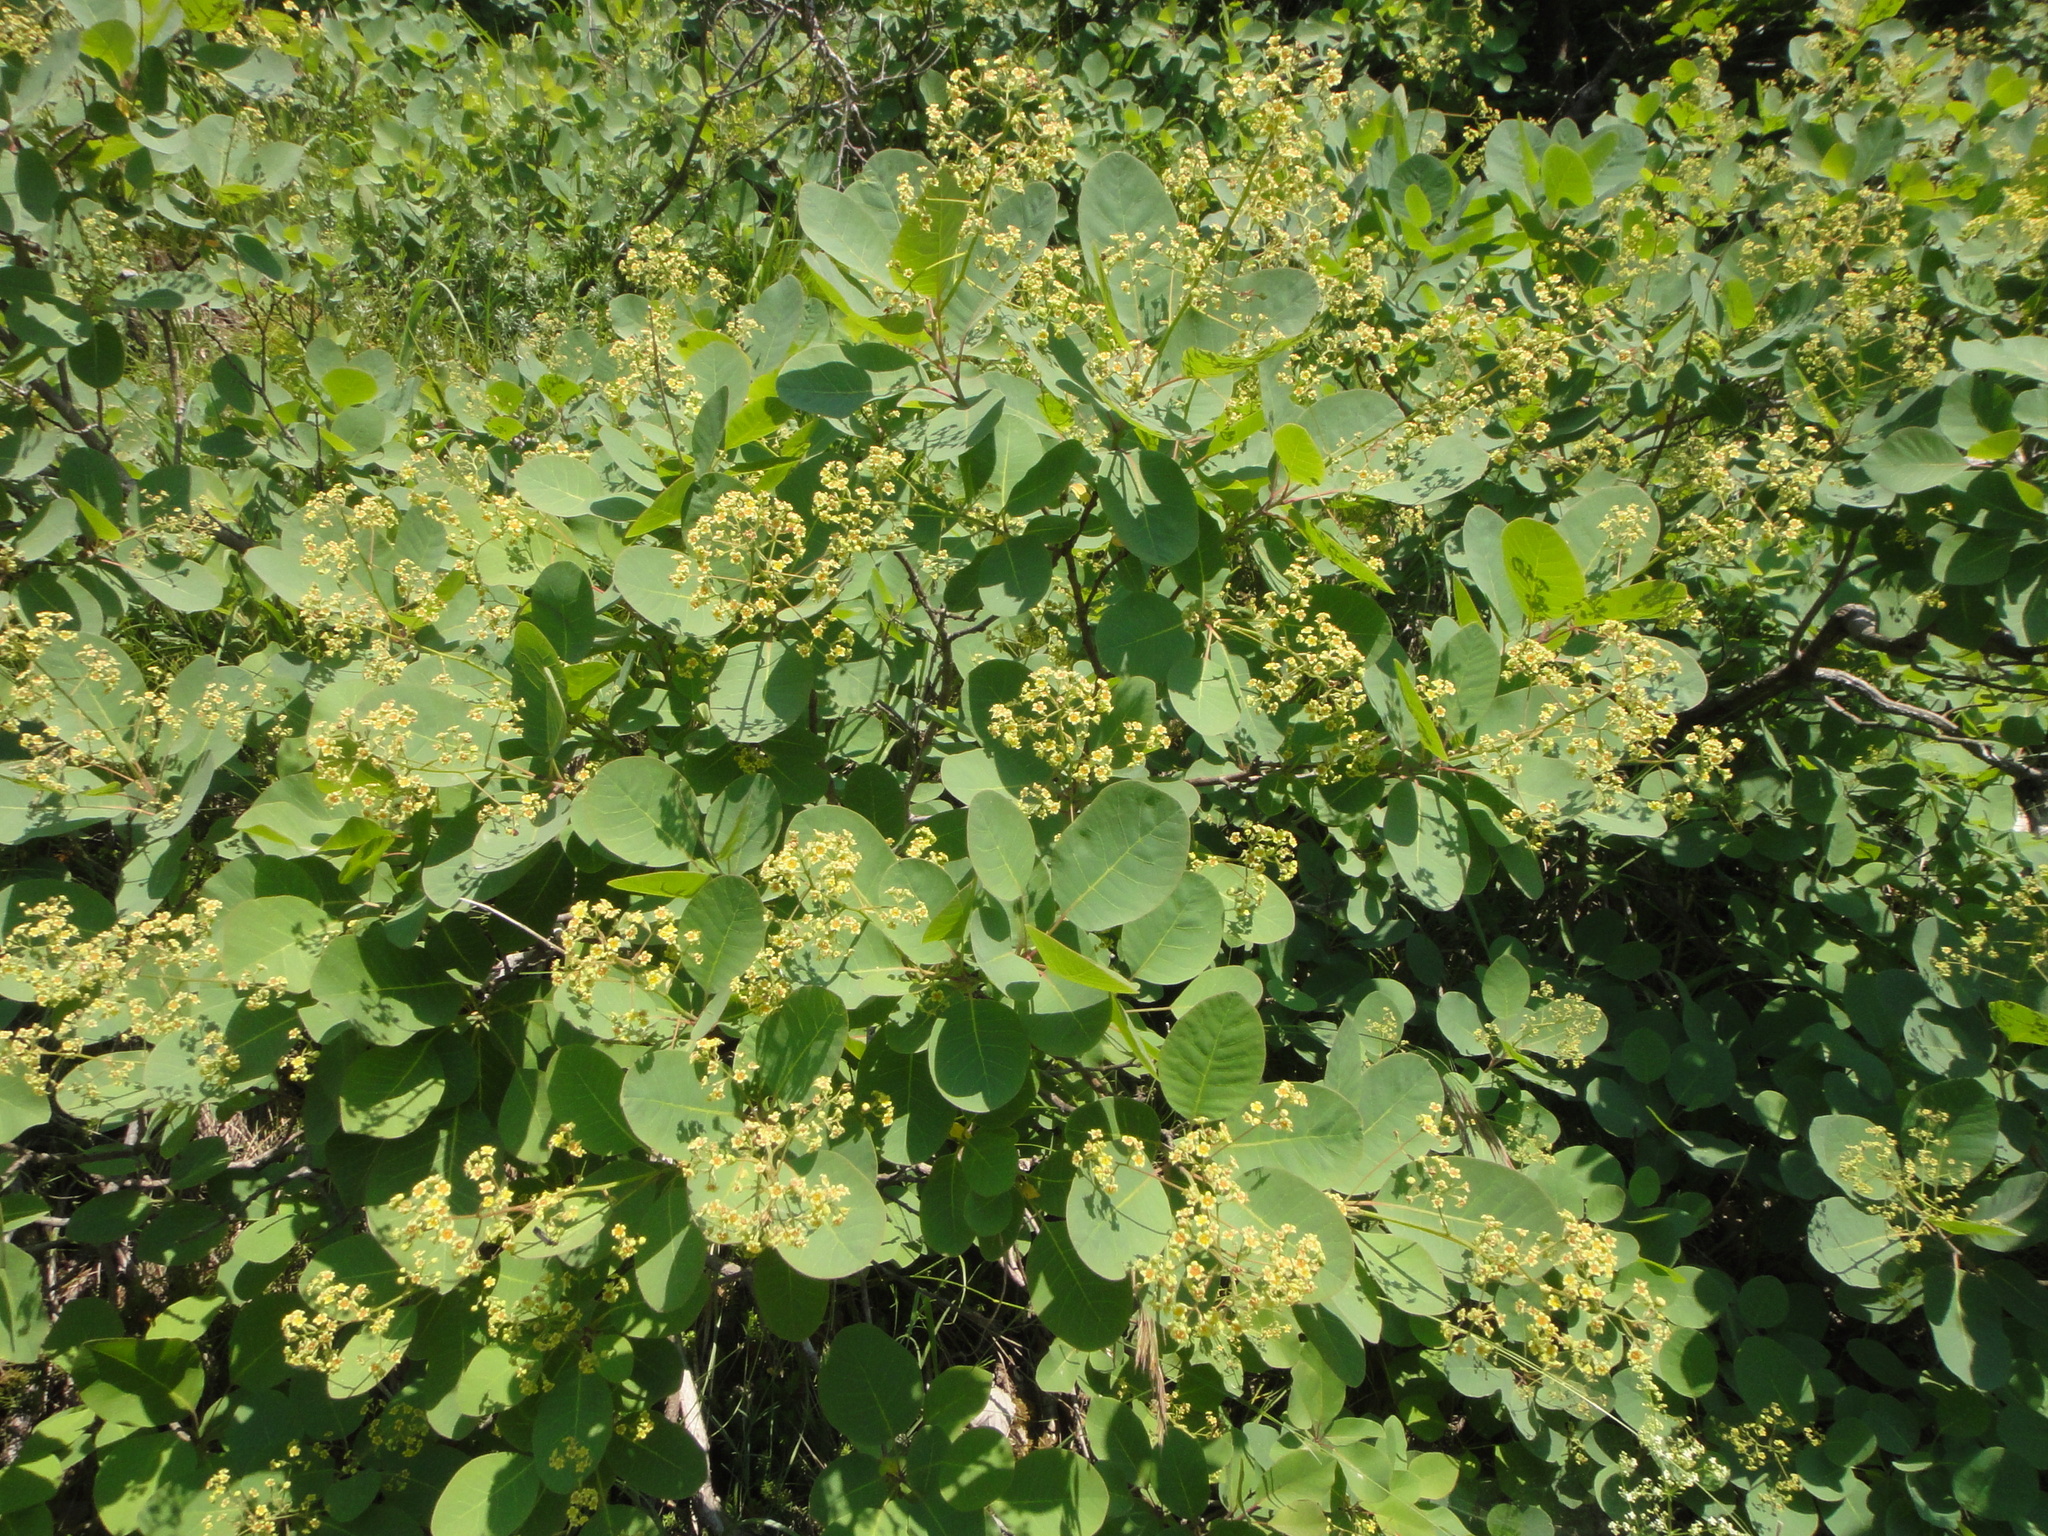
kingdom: Plantae
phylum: Tracheophyta
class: Magnoliopsida
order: Sapindales
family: Anacardiaceae
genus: Cotinus
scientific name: Cotinus coggygria
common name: Smoke-tree
